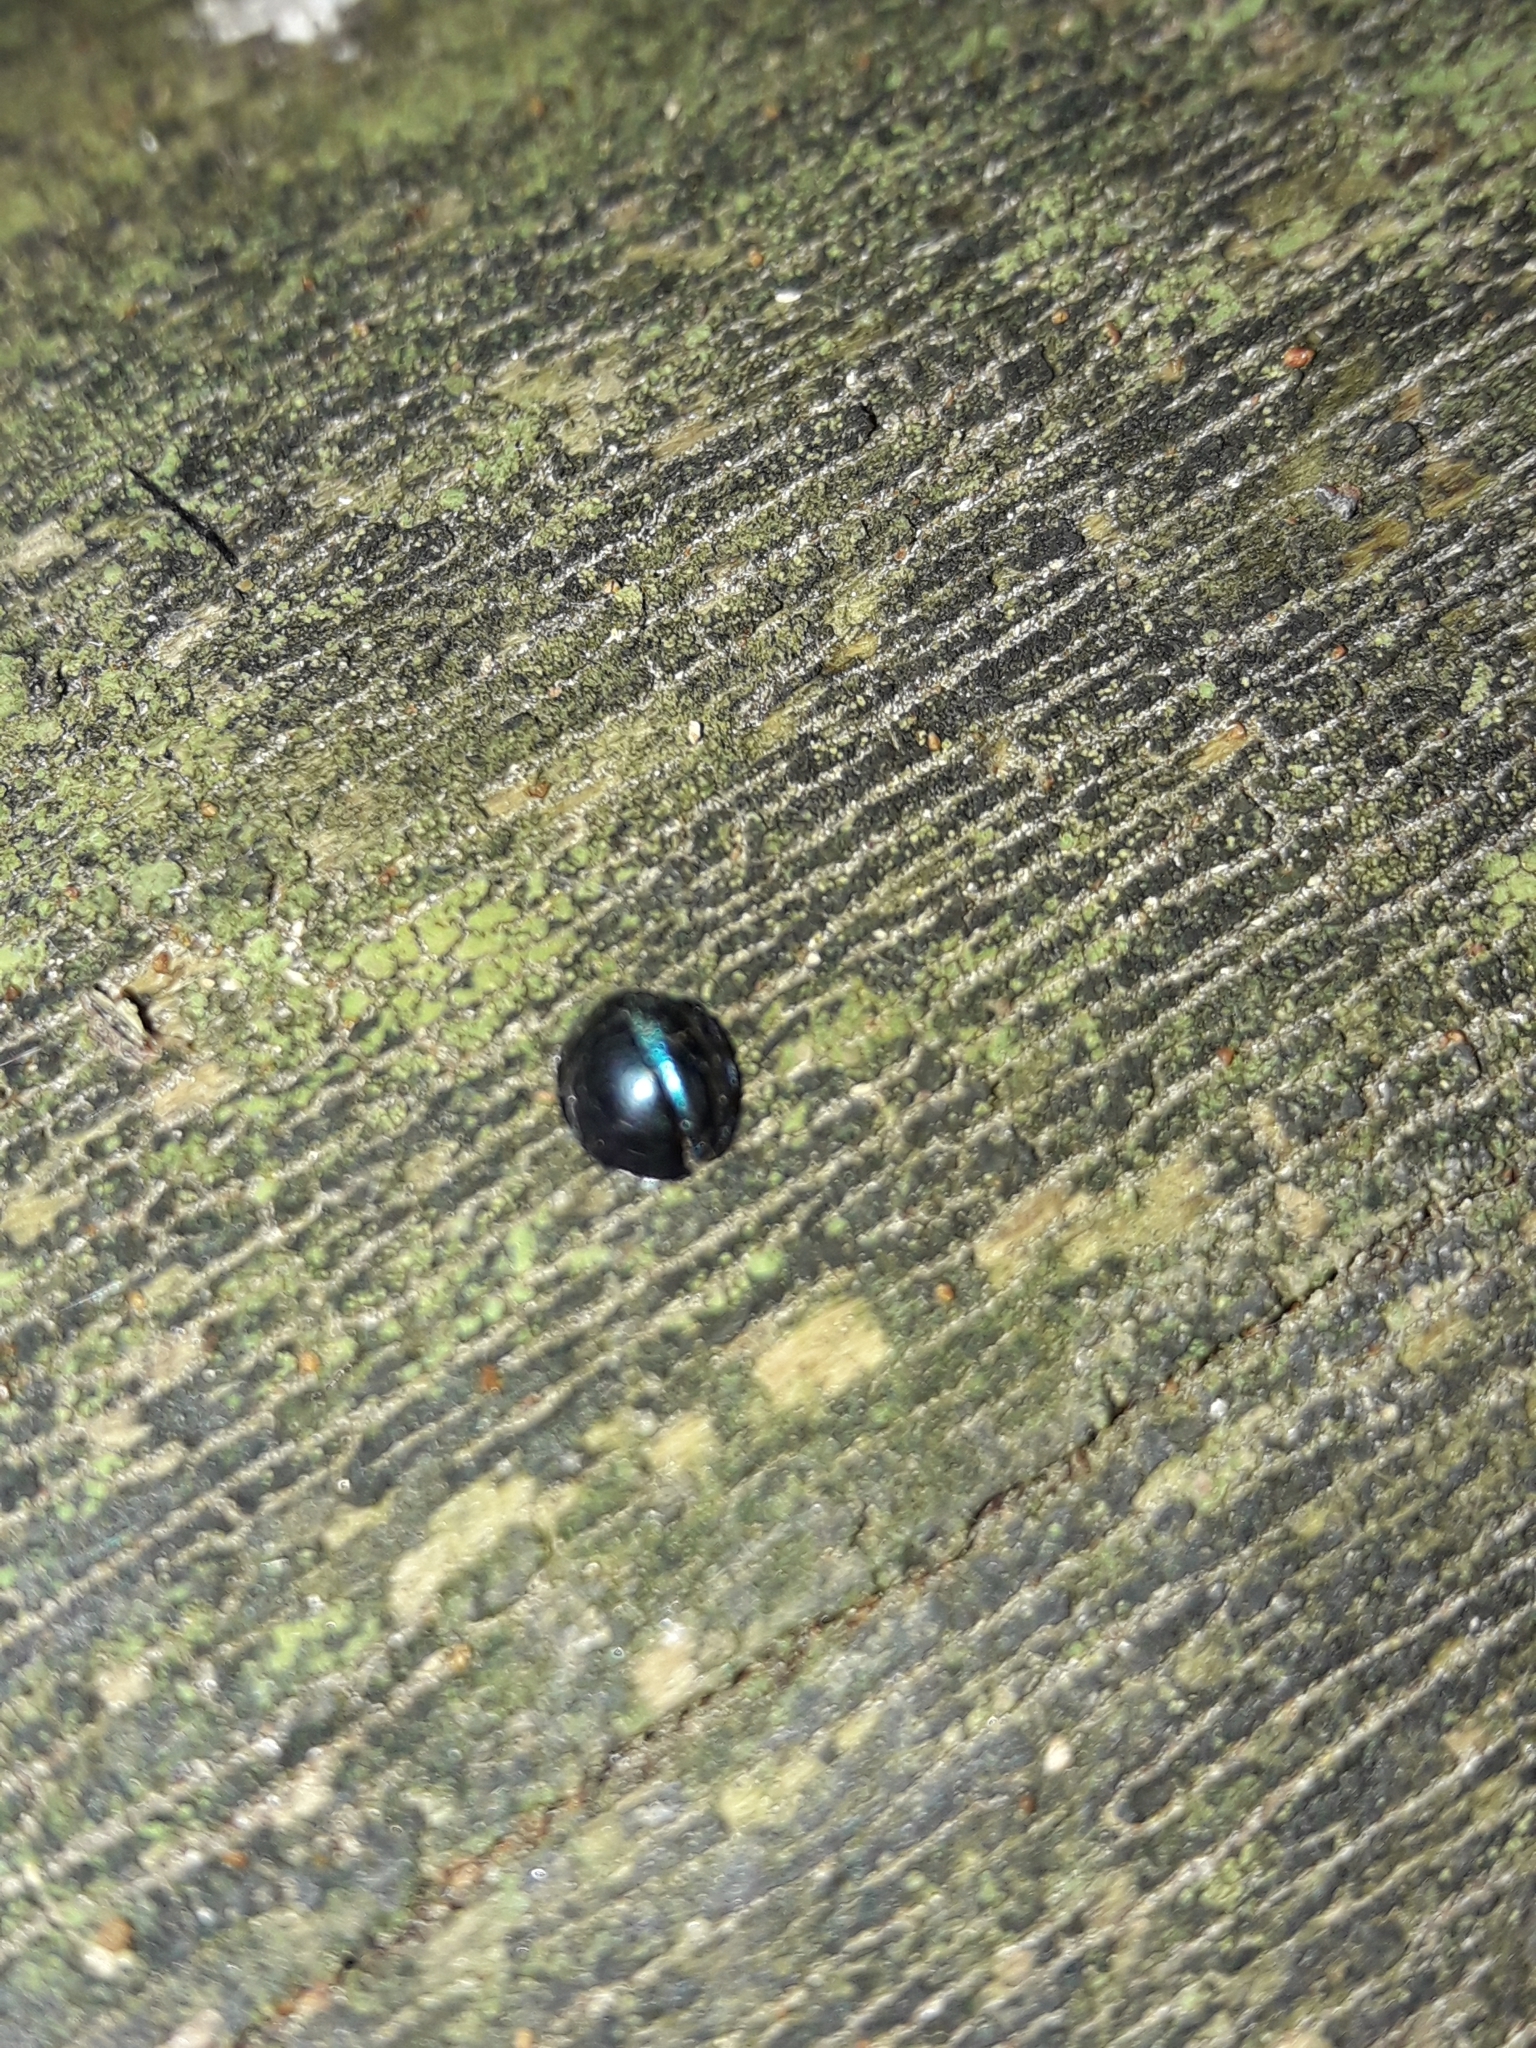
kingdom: Animalia
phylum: Arthropoda
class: Insecta
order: Coleoptera
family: Coccinellidae
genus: Halmus
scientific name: Halmus chalybeus
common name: Steel blue ladybird beetle
